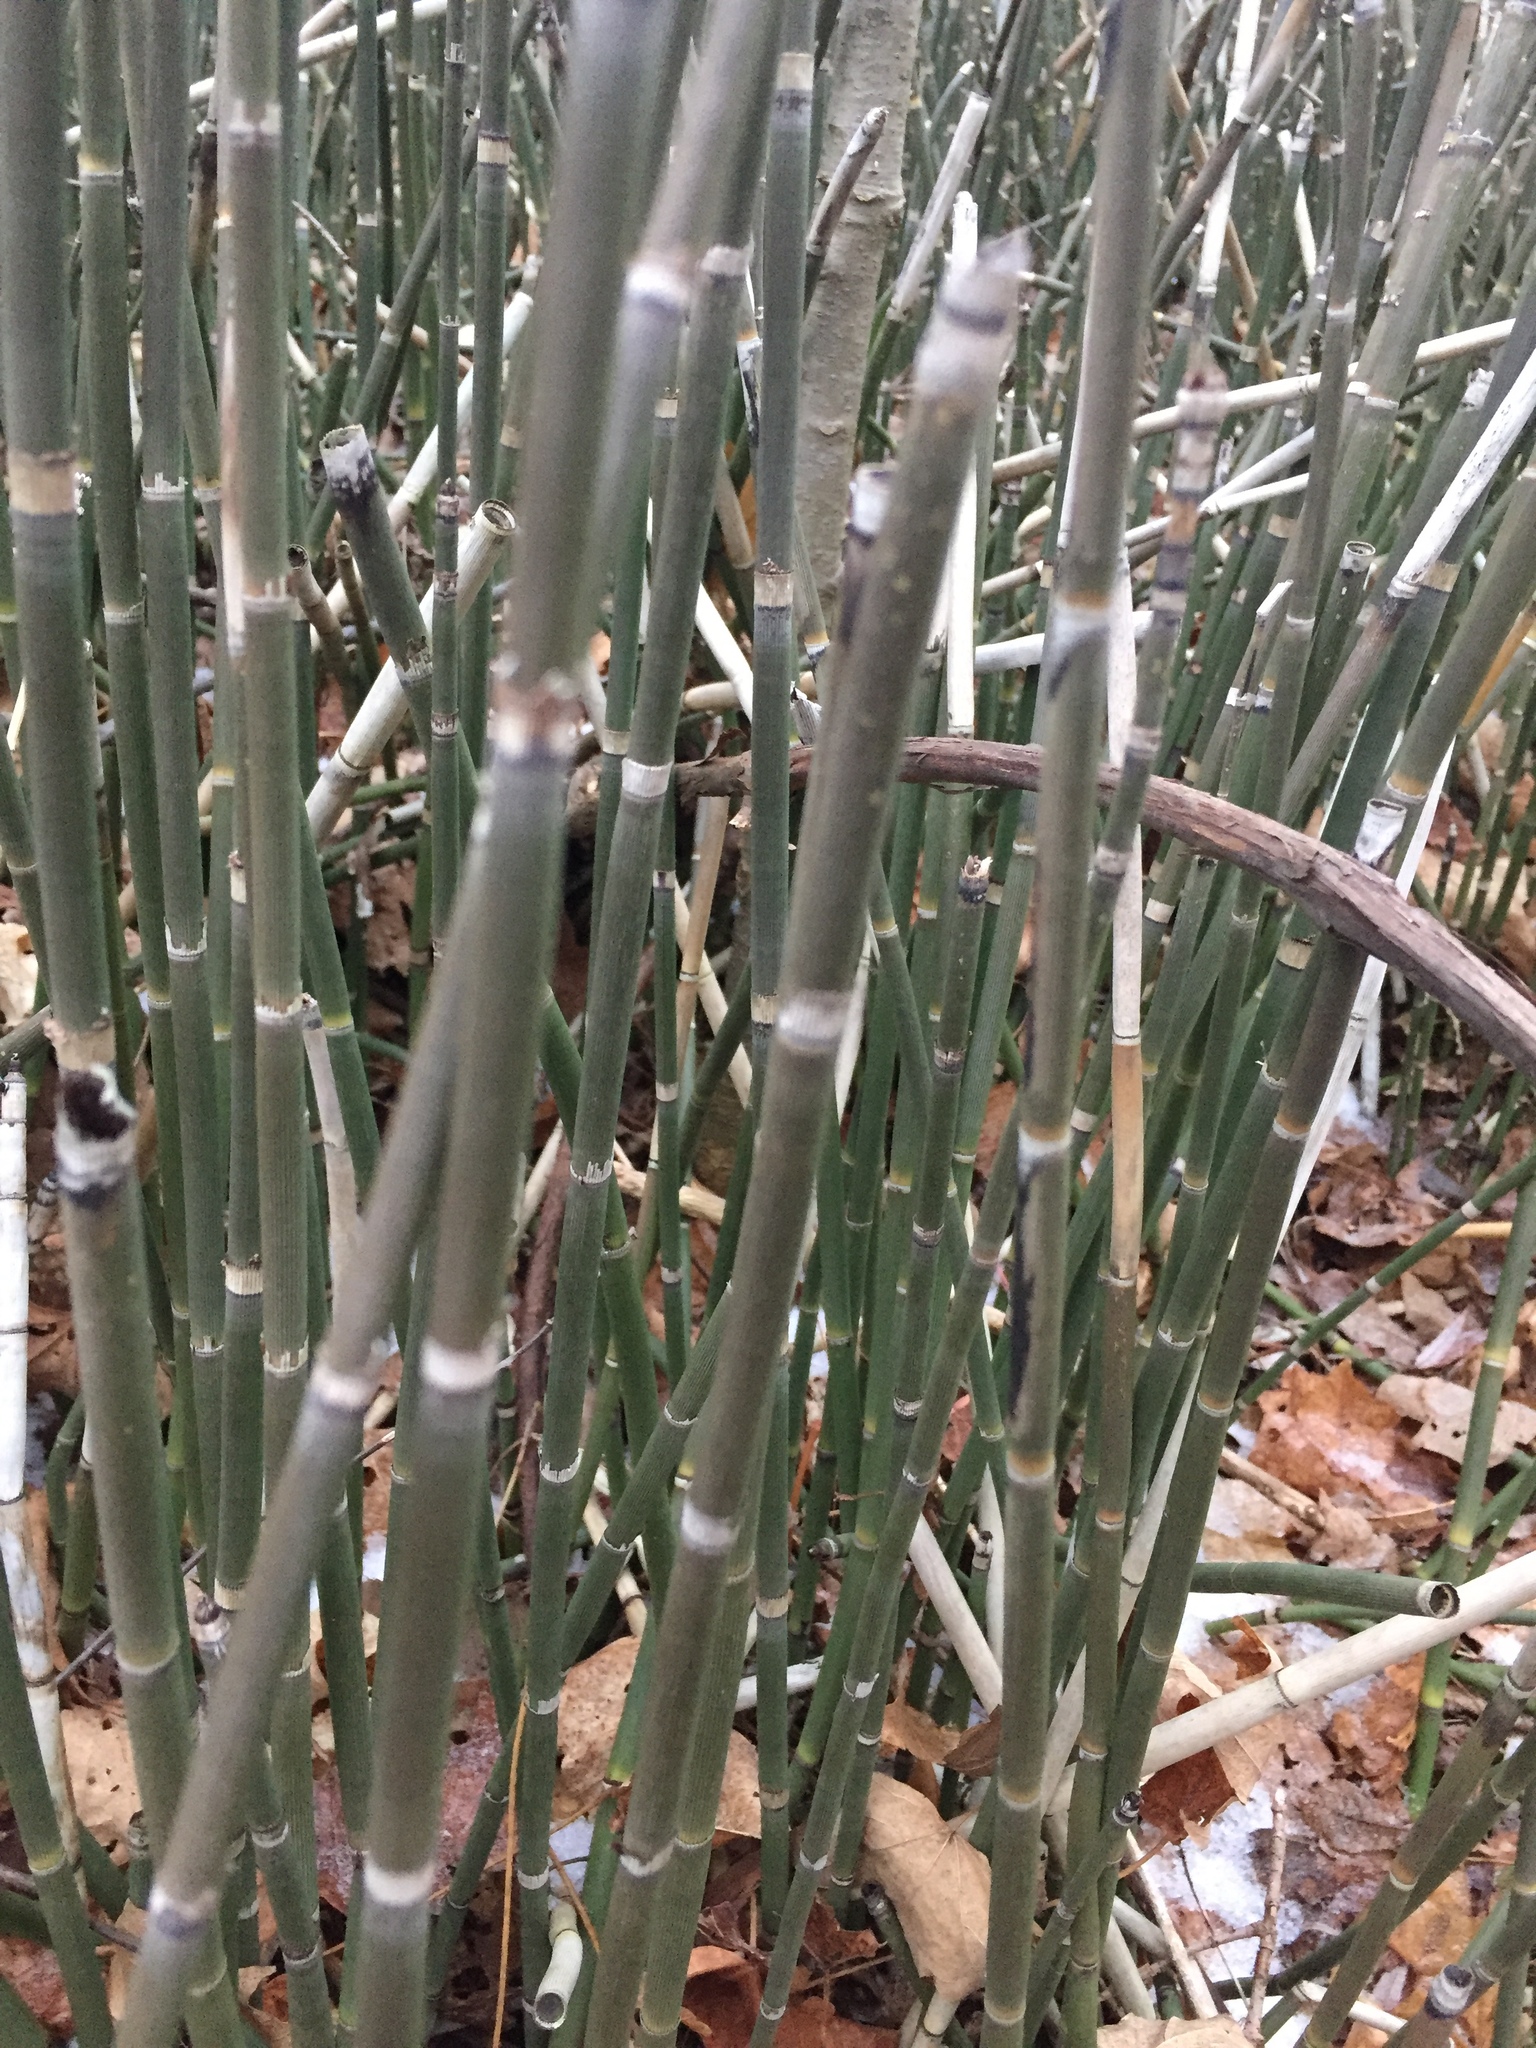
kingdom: Plantae
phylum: Tracheophyta
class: Polypodiopsida
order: Equisetales
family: Equisetaceae
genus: Equisetum
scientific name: Equisetum hyemale
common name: Rough horsetail
